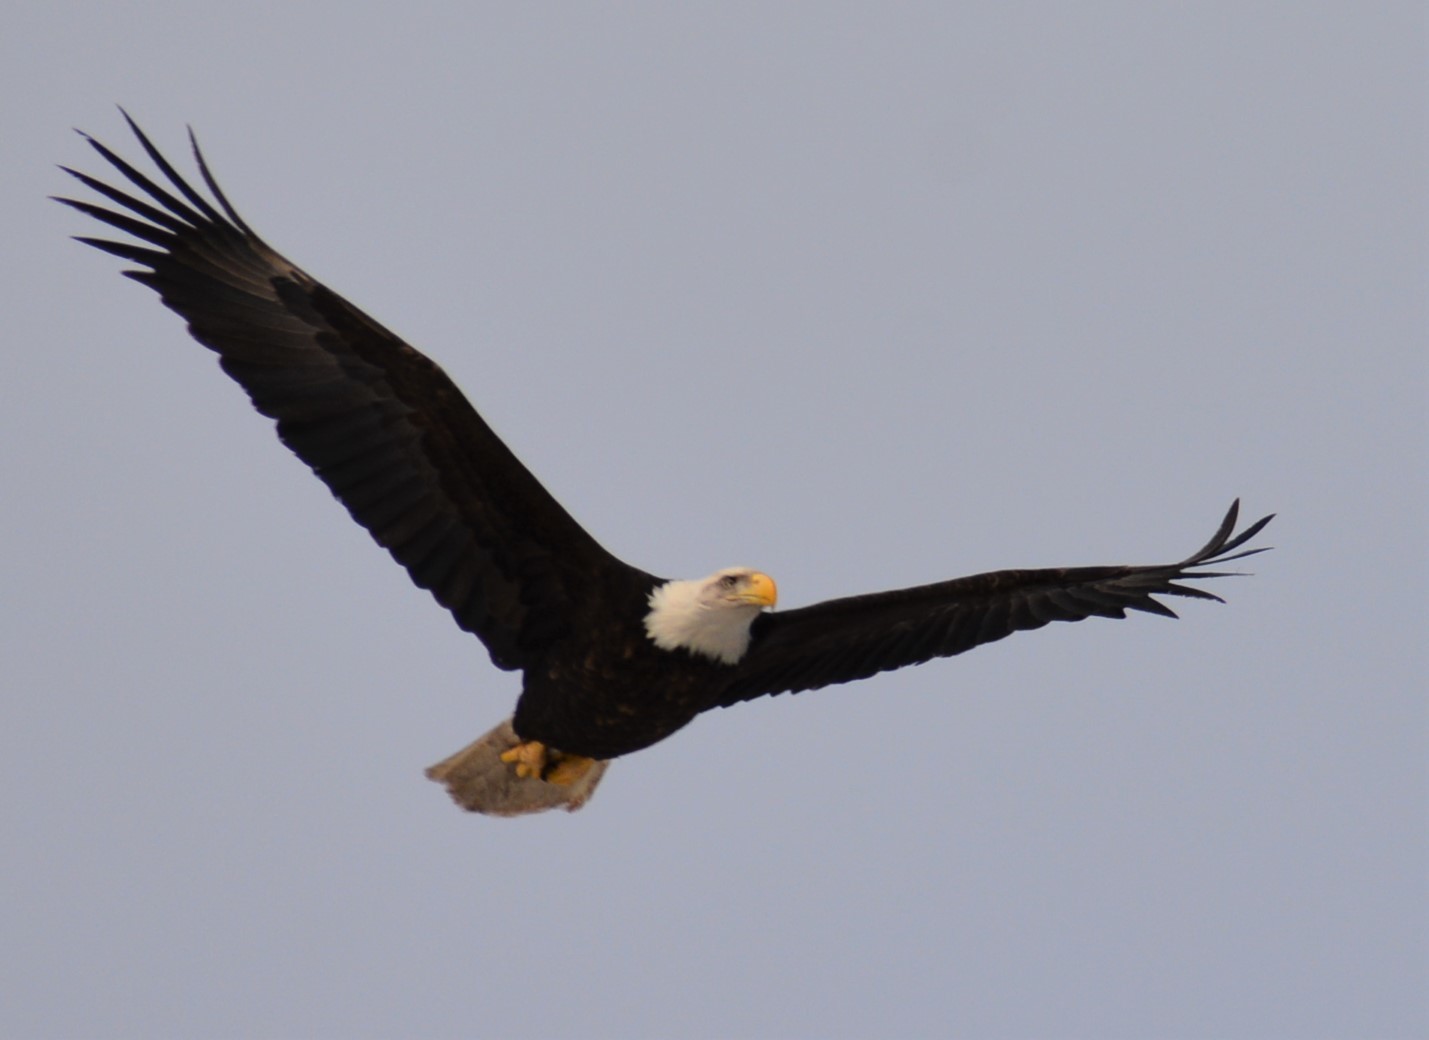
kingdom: Animalia
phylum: Chordata
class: Aves
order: Accipitriformes
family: Accipitridae
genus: Haliaeetus
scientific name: Haliaeetus leucocephalus
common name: Bald eagle
